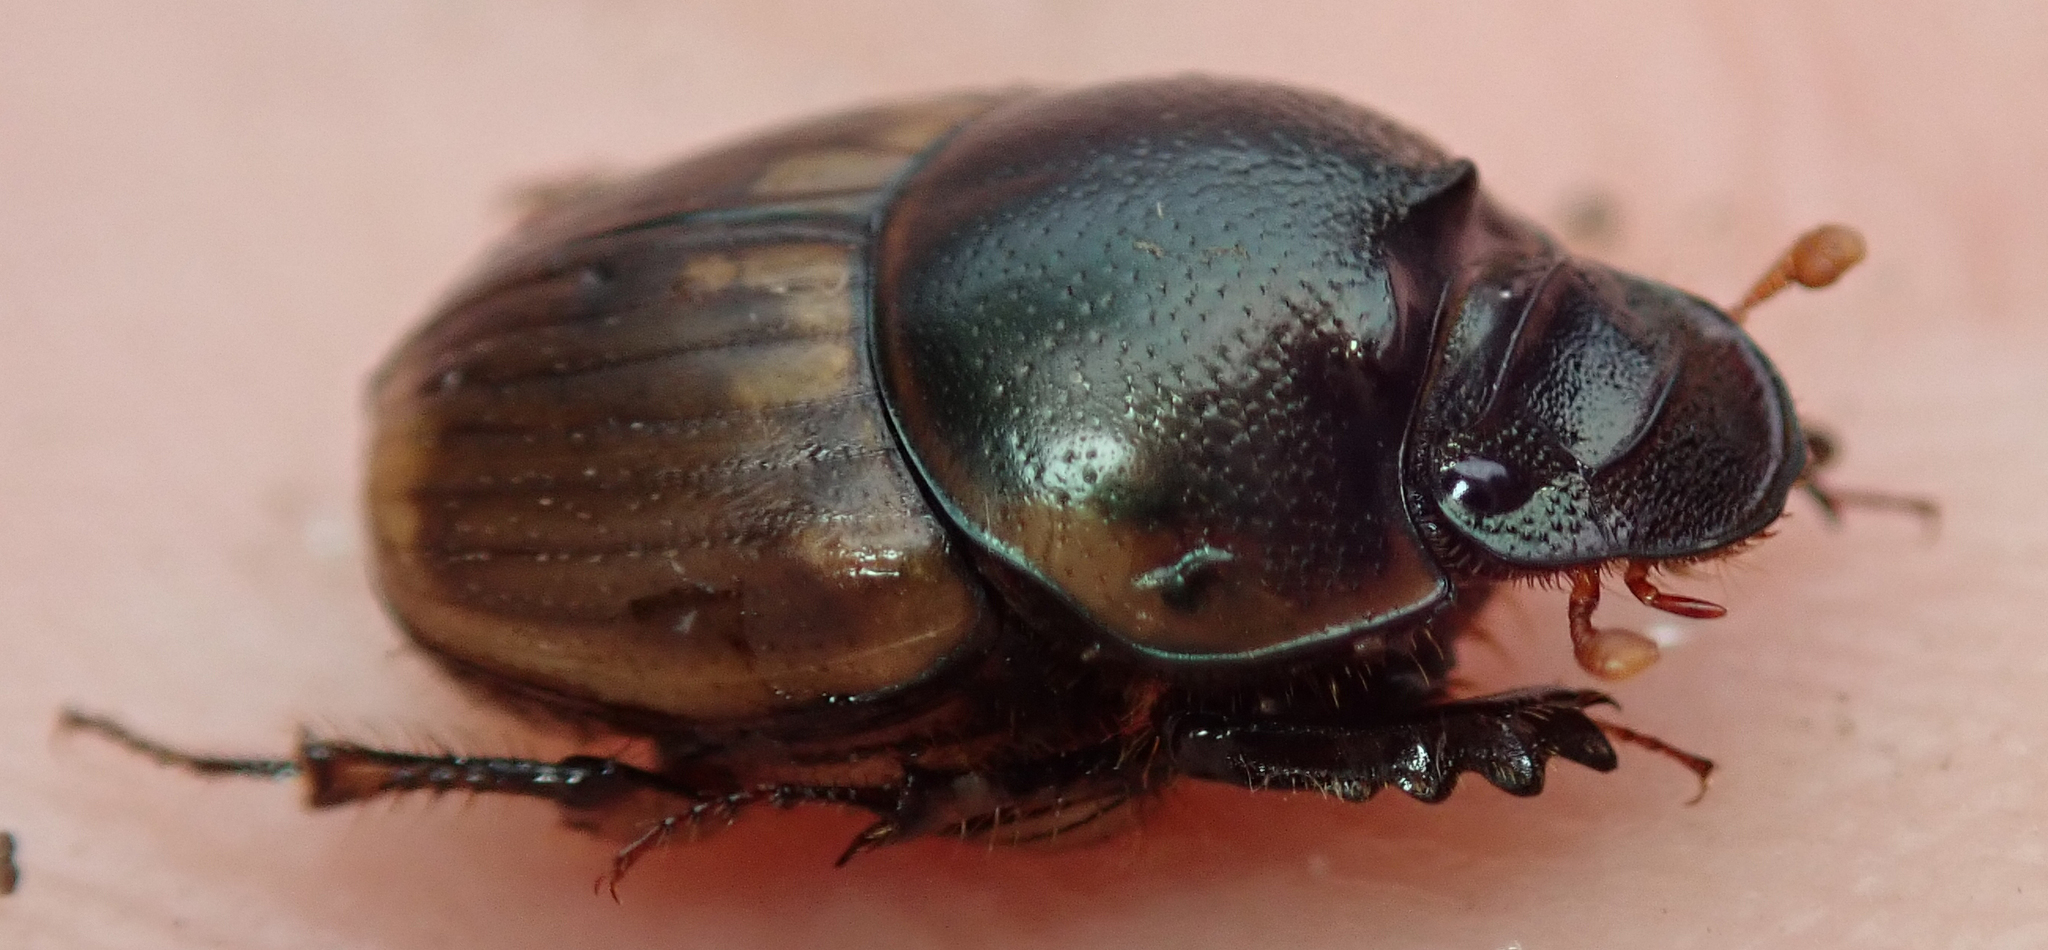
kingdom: Animalia
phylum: Arthropoda
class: Insecta
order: Coleoptera
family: Scarabaeidae
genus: Digitonthophagus
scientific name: Digitonthophagus gazella
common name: Brown dung beetle
